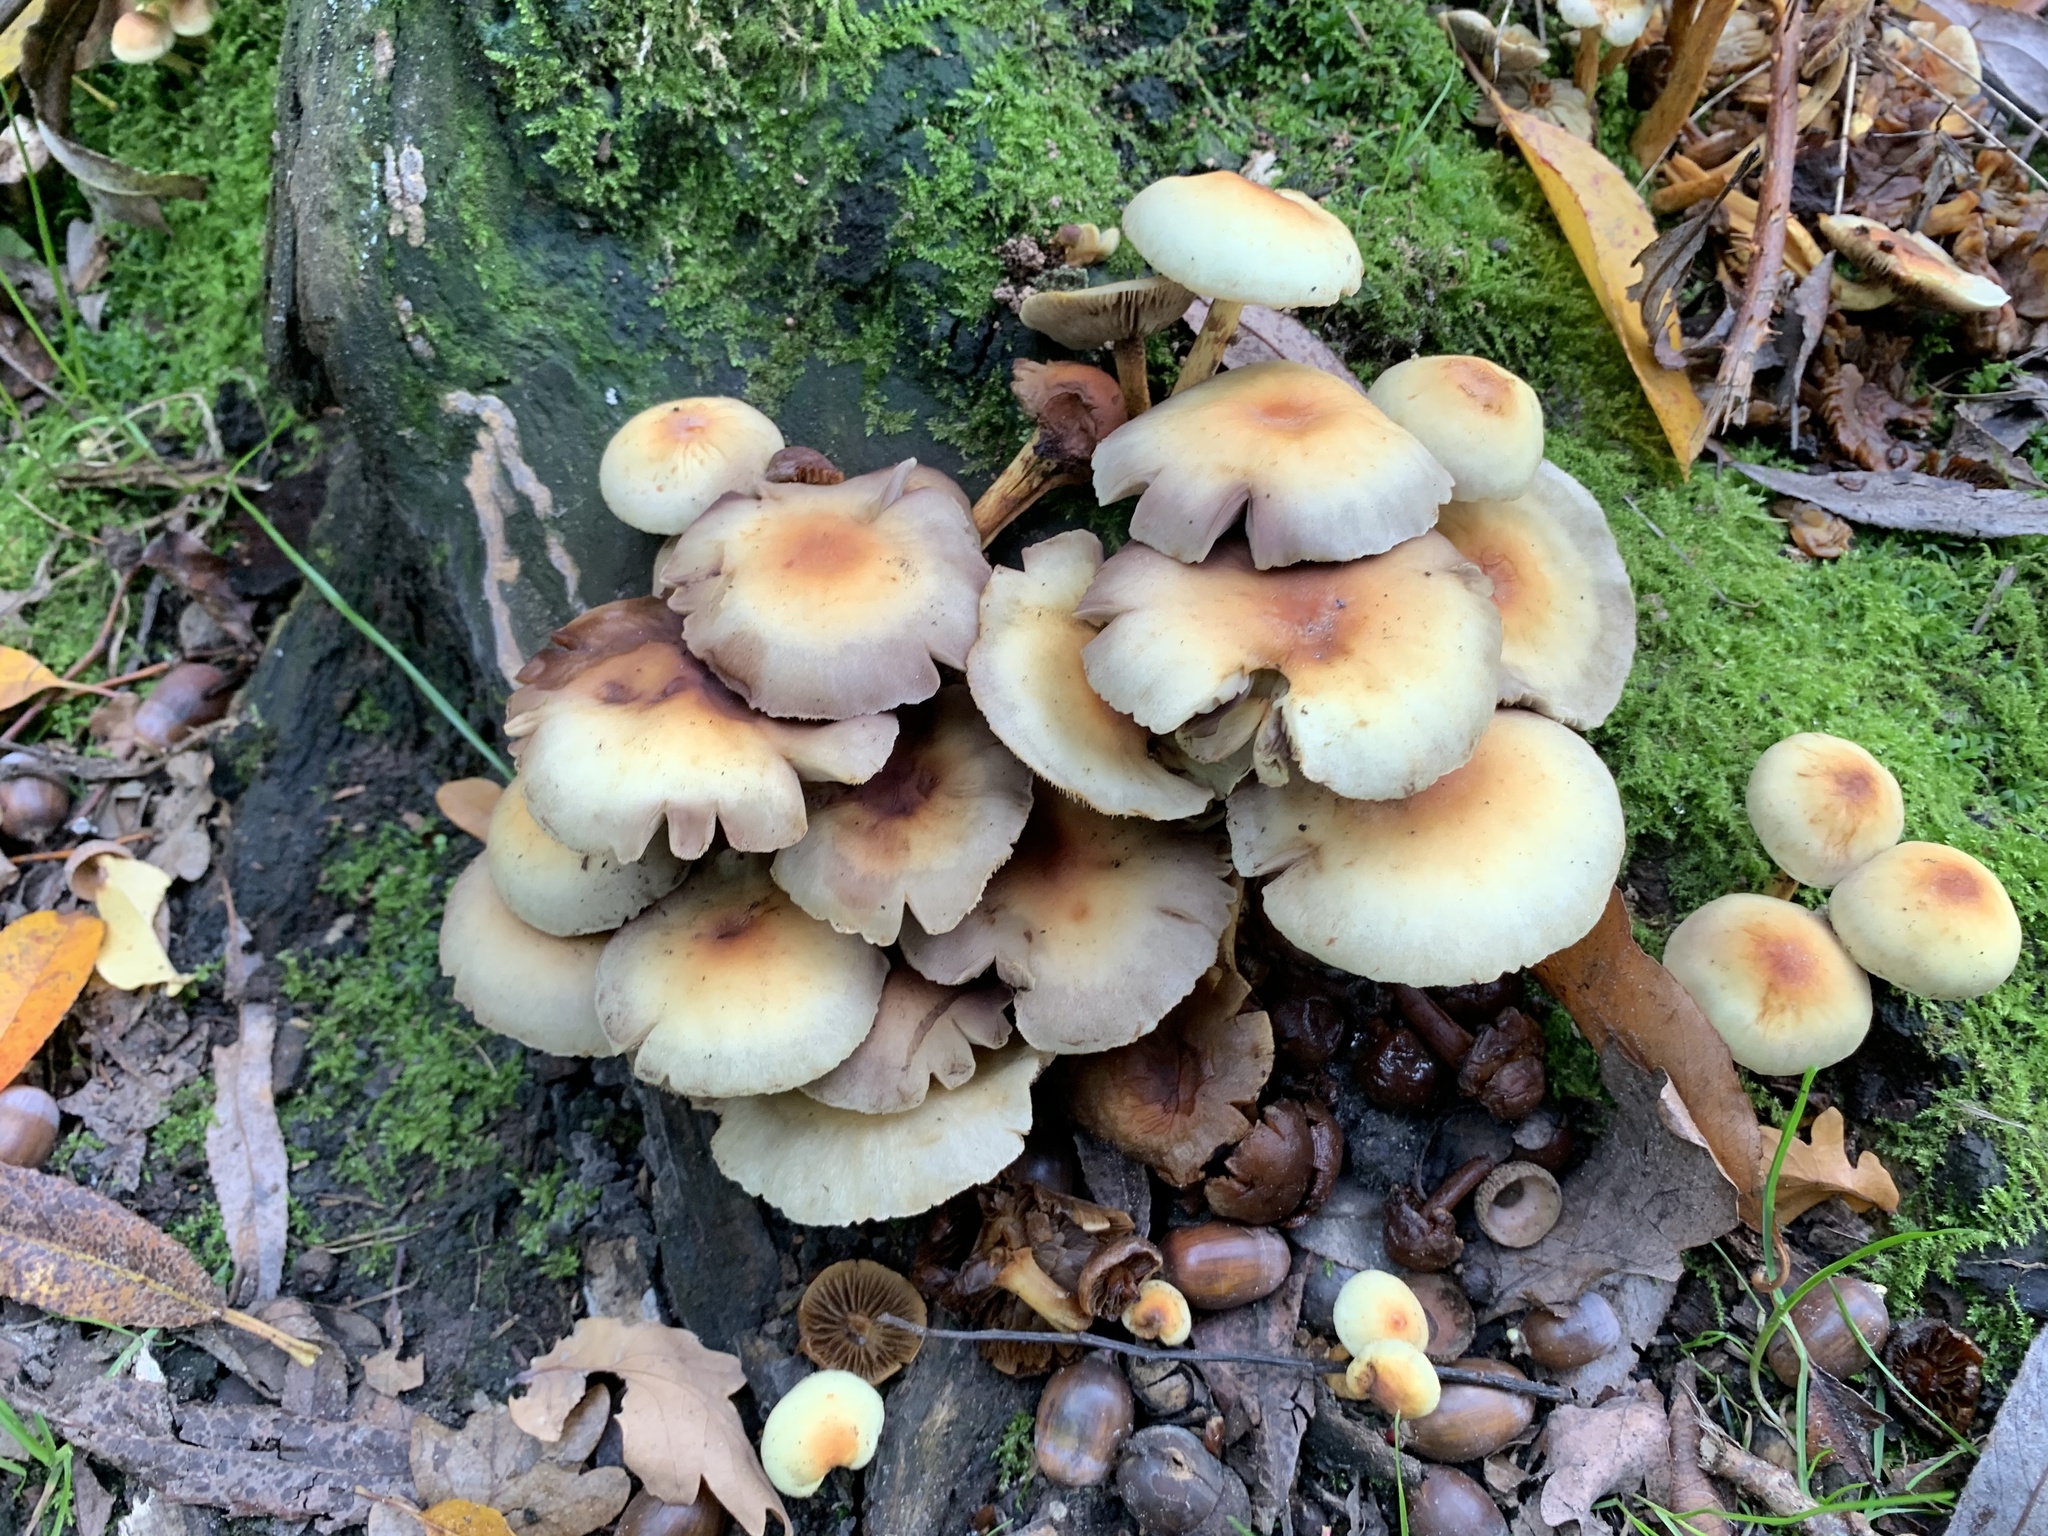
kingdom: Fungi
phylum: Basidiomycota
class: Agaricomycetes
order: Agaricales
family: Strophariaceae
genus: Hypholoma
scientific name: Hypholoma fasciculare
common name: Sulphur tuft
